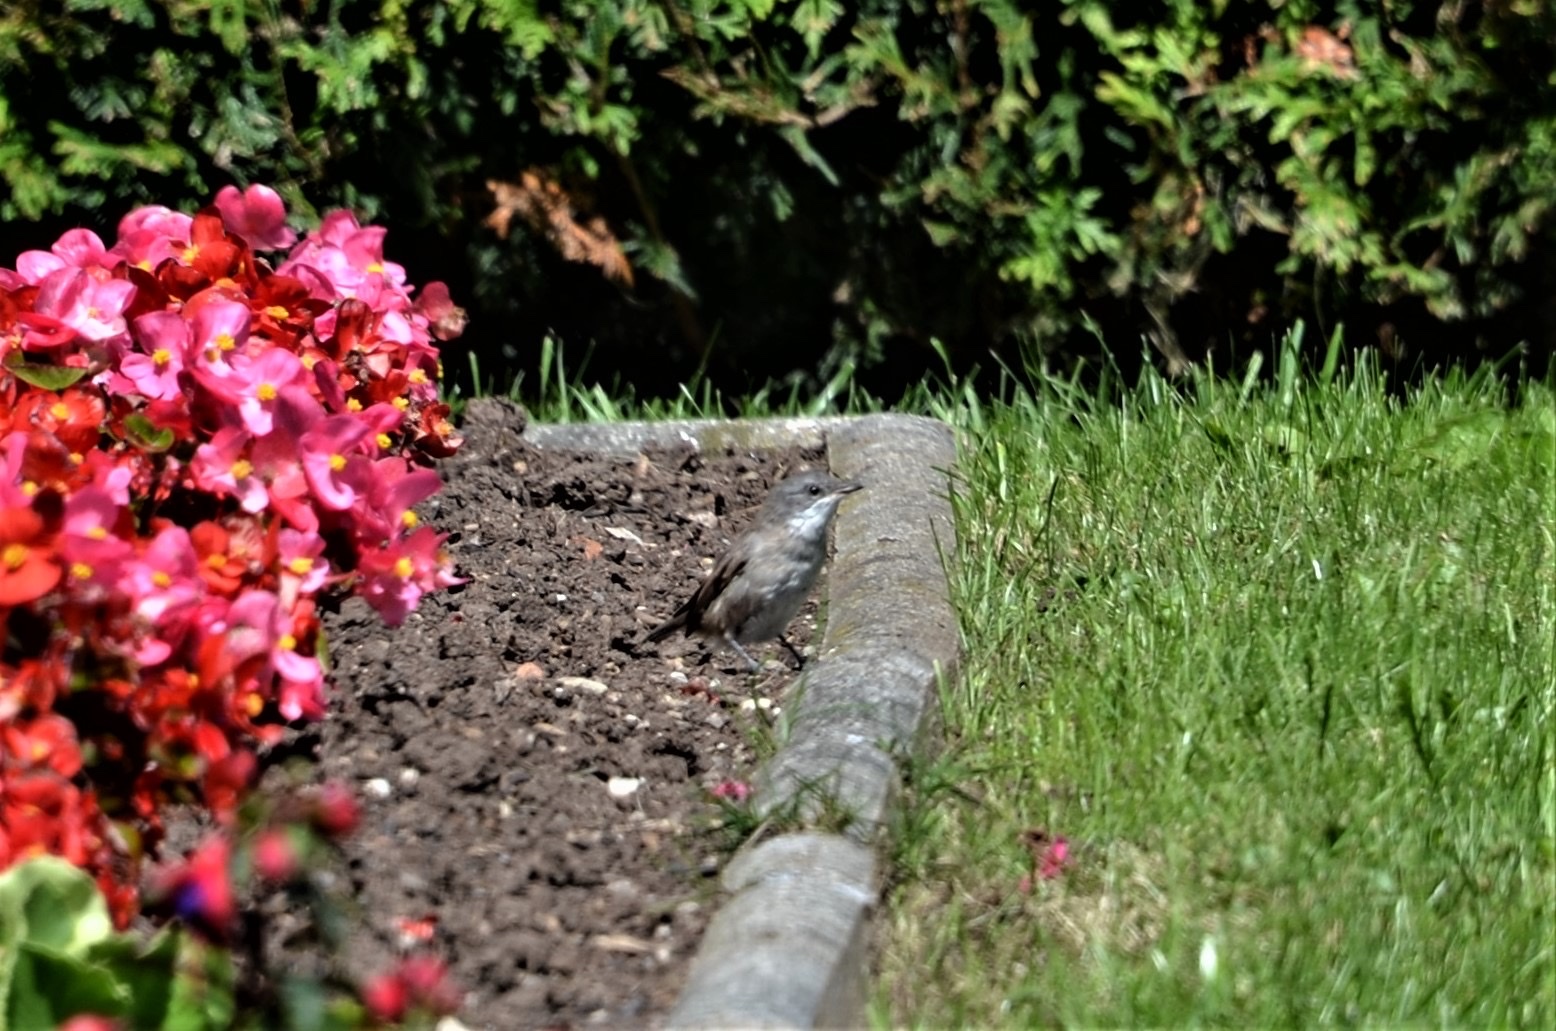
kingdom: Animalia
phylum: Chordata
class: Aves
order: Passeriformes
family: Sylviidae
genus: Sylvia
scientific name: Sylvia curruca
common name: Lesser whitethroat
